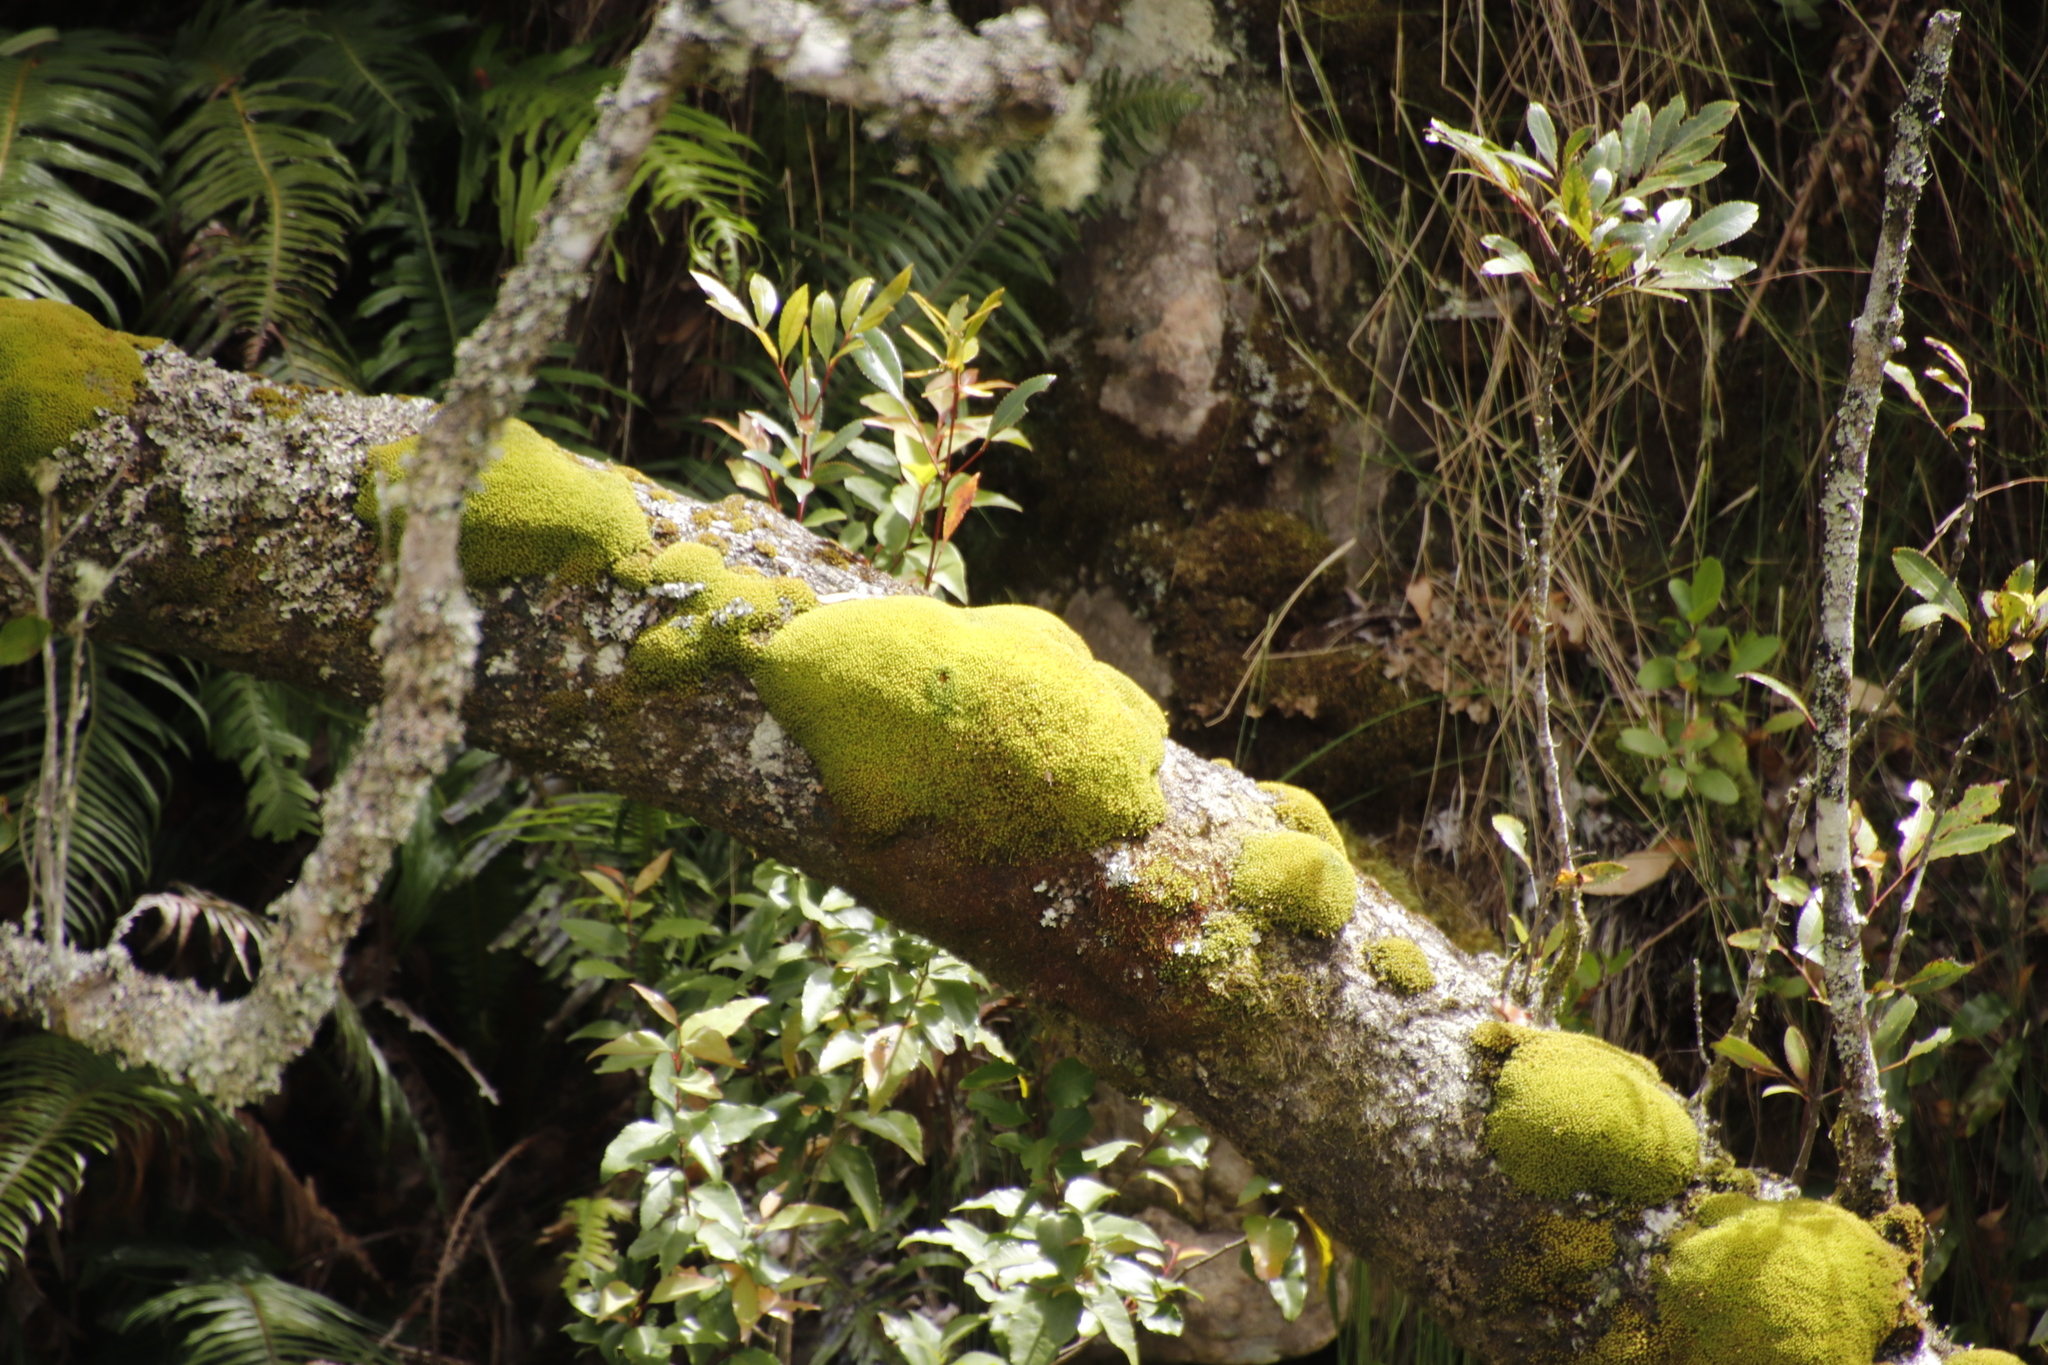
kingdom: Plantae
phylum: Tracheophyta
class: Magnoliopsida
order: Oxalidales
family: Cunoniaceae
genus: Cunonia
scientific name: Cunonia capensis
